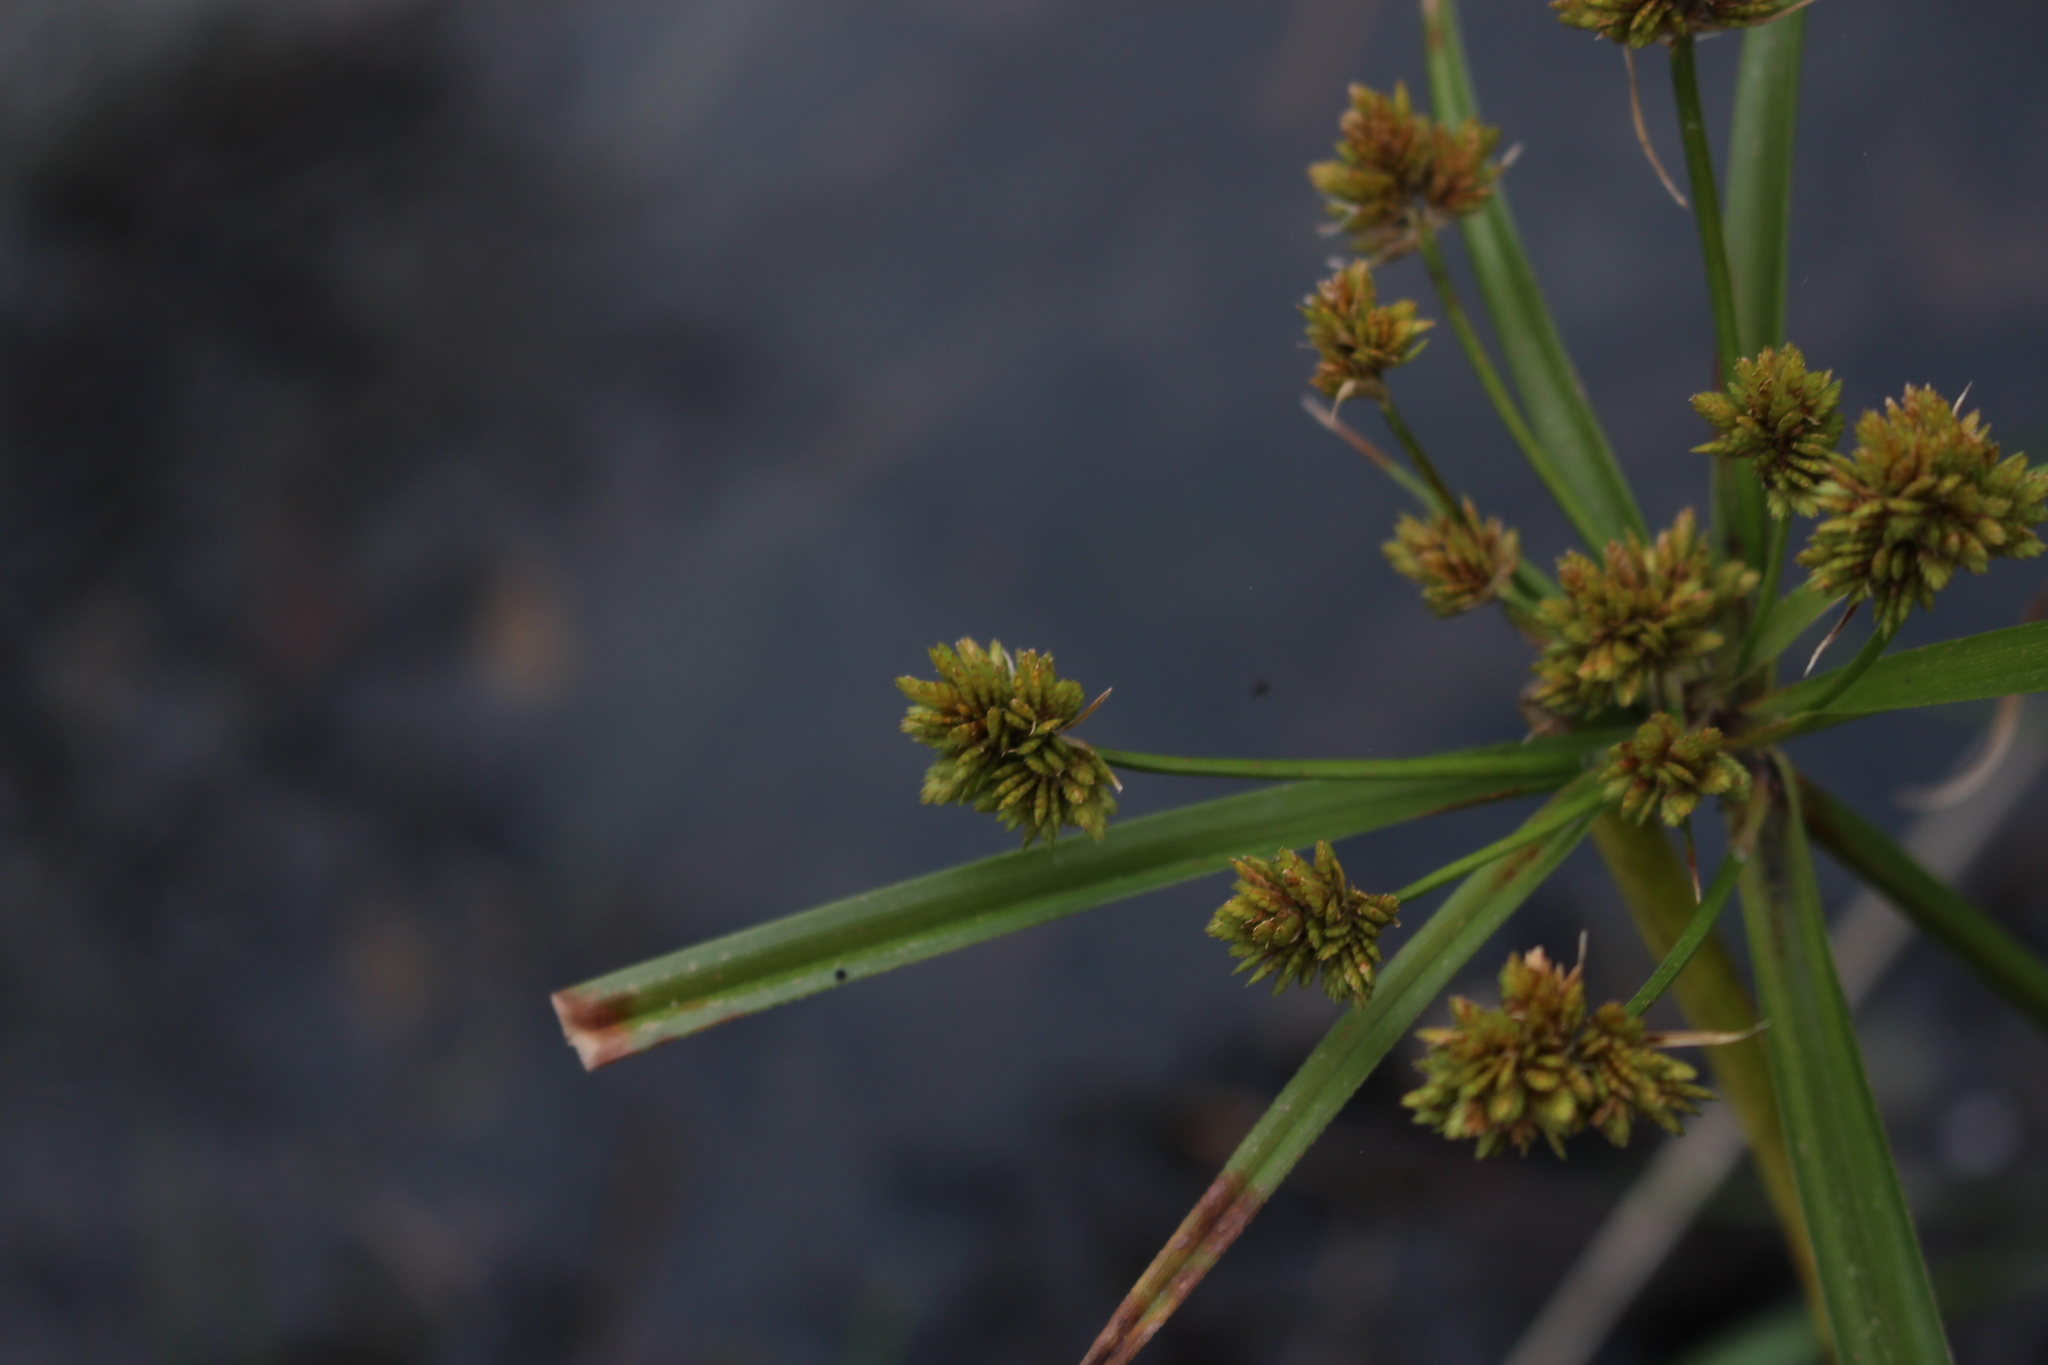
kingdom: Plantae
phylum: Tracheophyta
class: Liliopsida
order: Poales
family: Cyperaceae
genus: Cyperus
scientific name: Cyperus eragrostis
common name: Tall flatsedge
